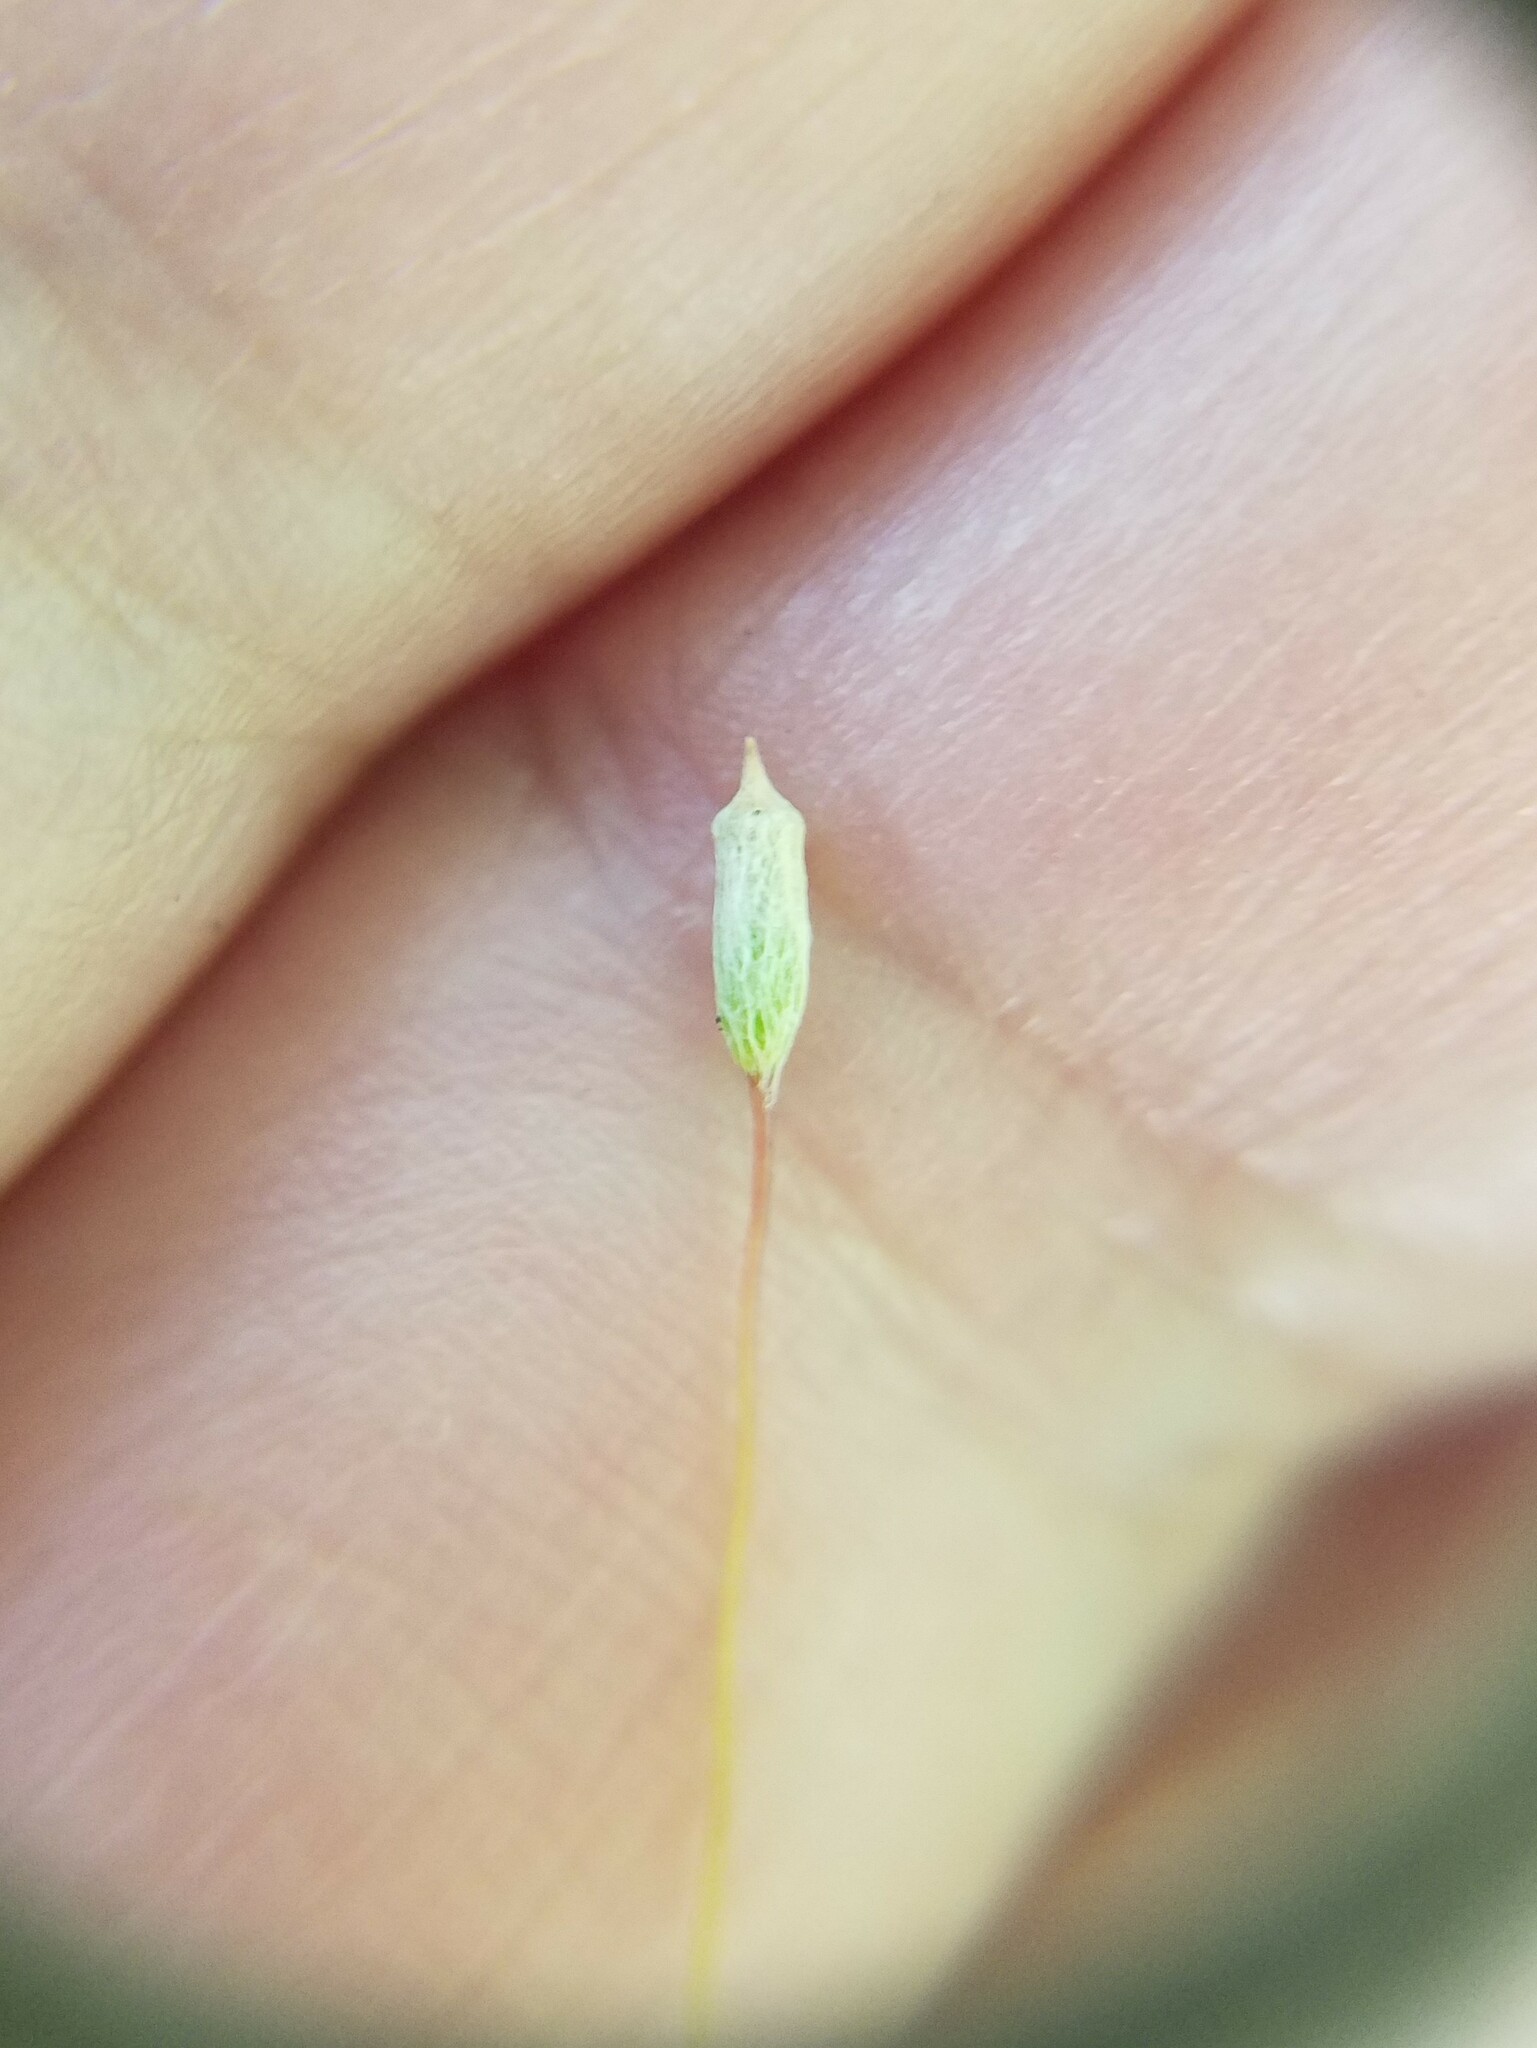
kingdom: Plantae
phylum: Bryophyta
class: Polytrichopsida
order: Polytrichales
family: Polytrichaceae
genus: Pogonatum
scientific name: Pogonatum pensilvanicum
